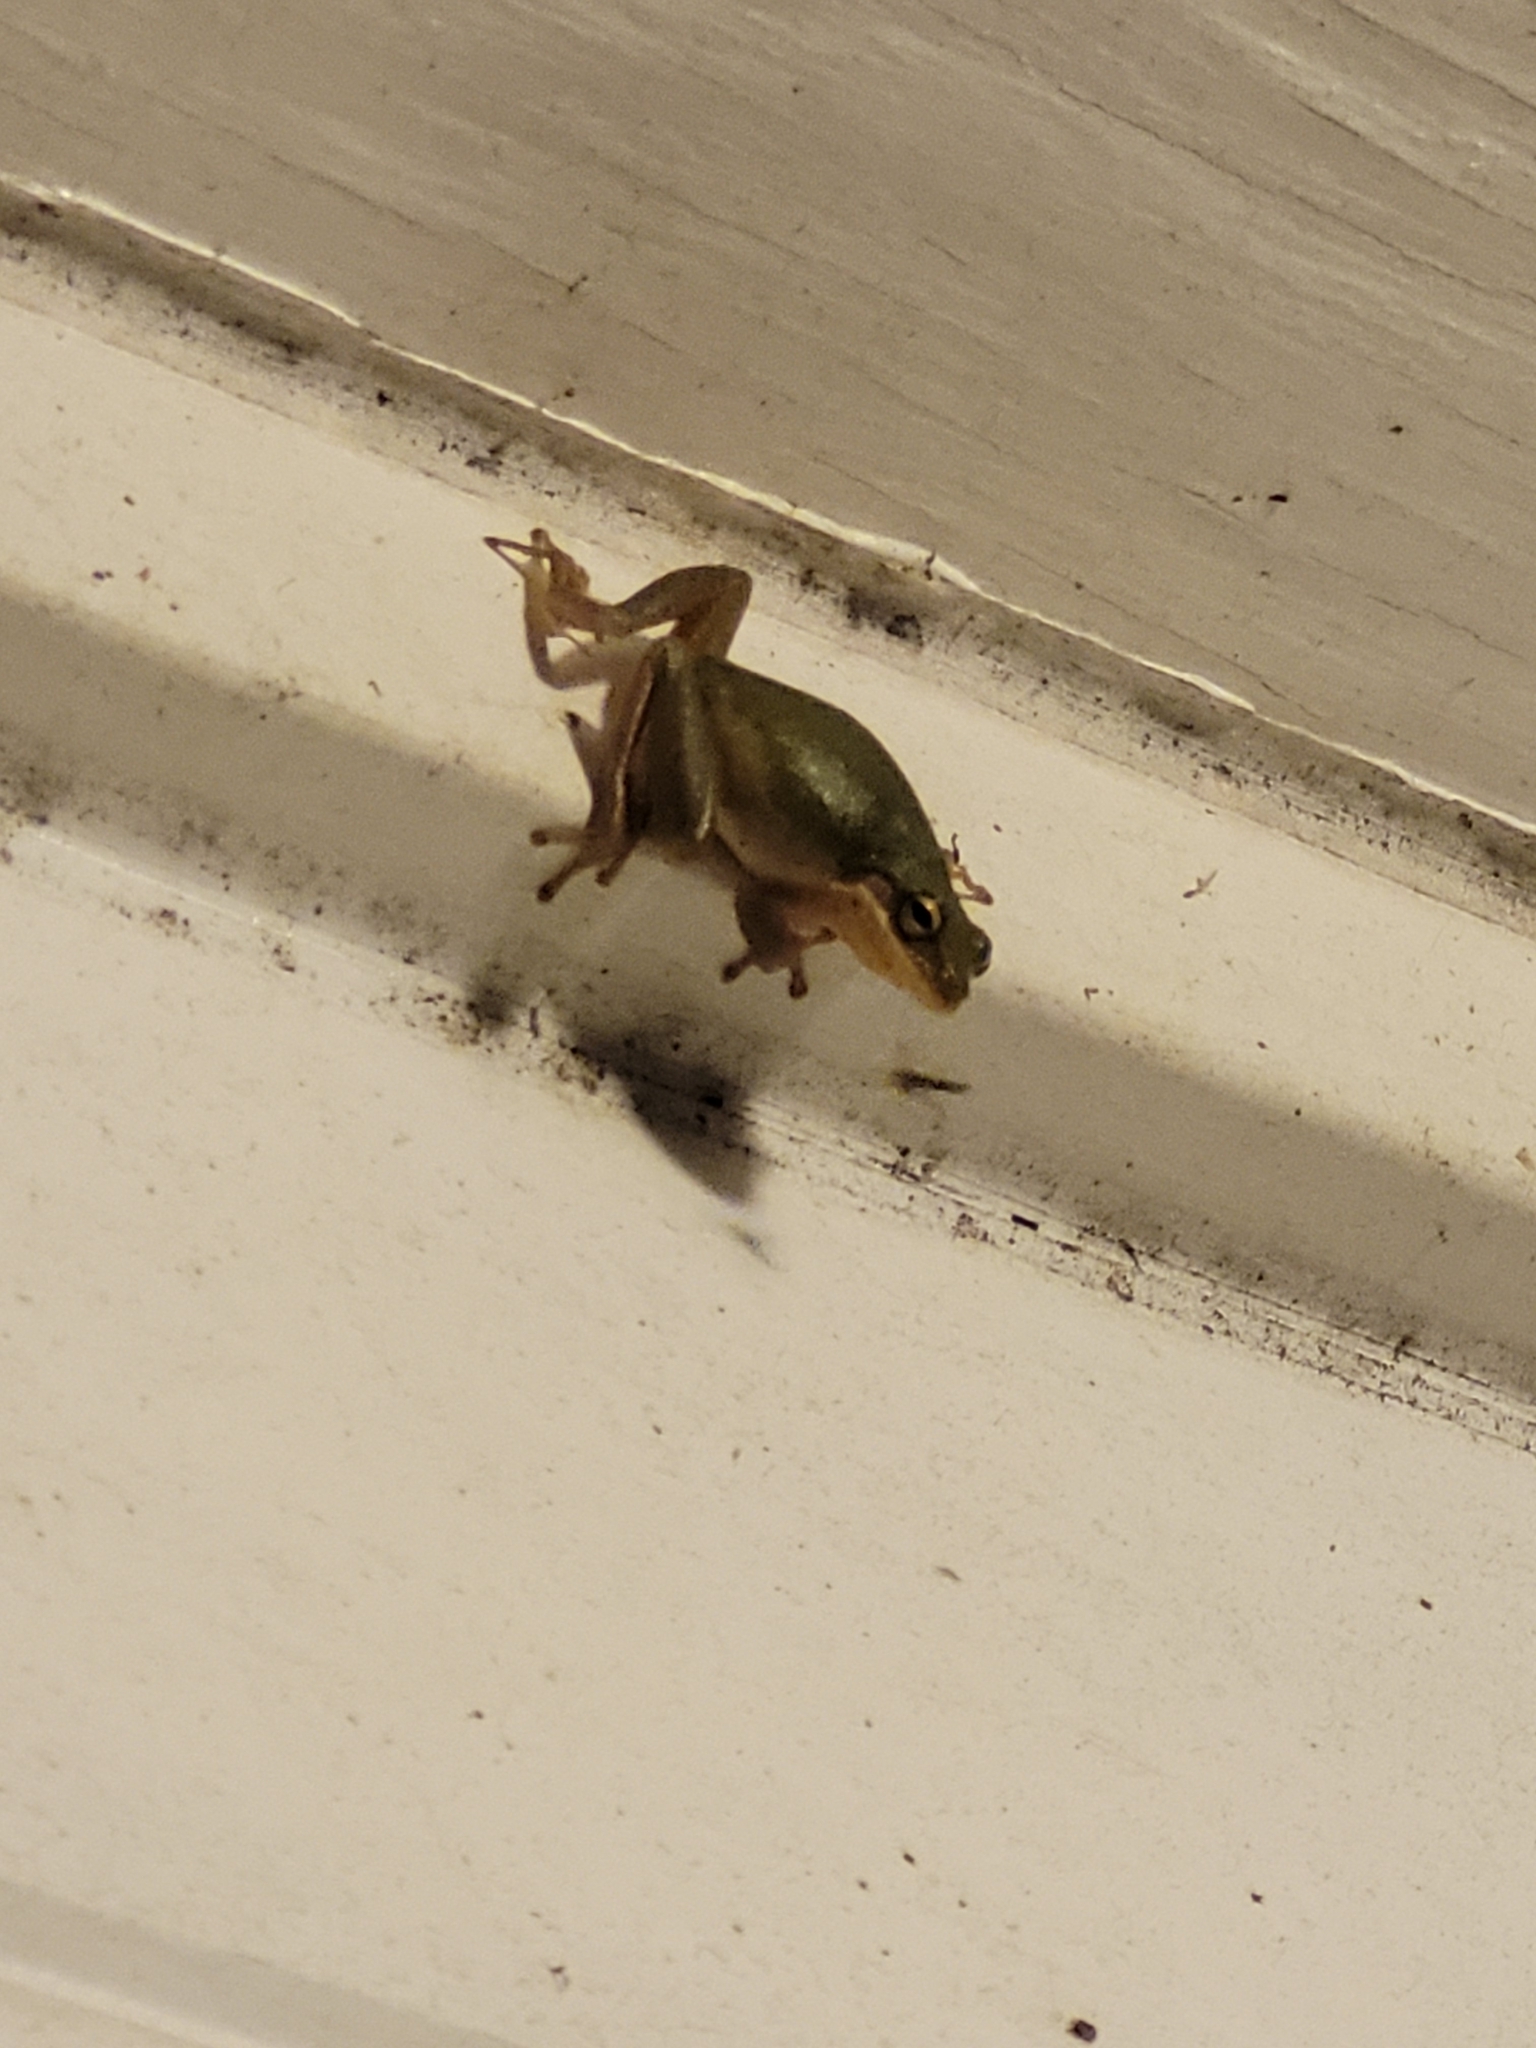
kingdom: Animalia
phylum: Chordata
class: Amphibia
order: Anura
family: Hylidae
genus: Dryophytes
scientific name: Dryophytes squirellus
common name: Squirrel treefrog
